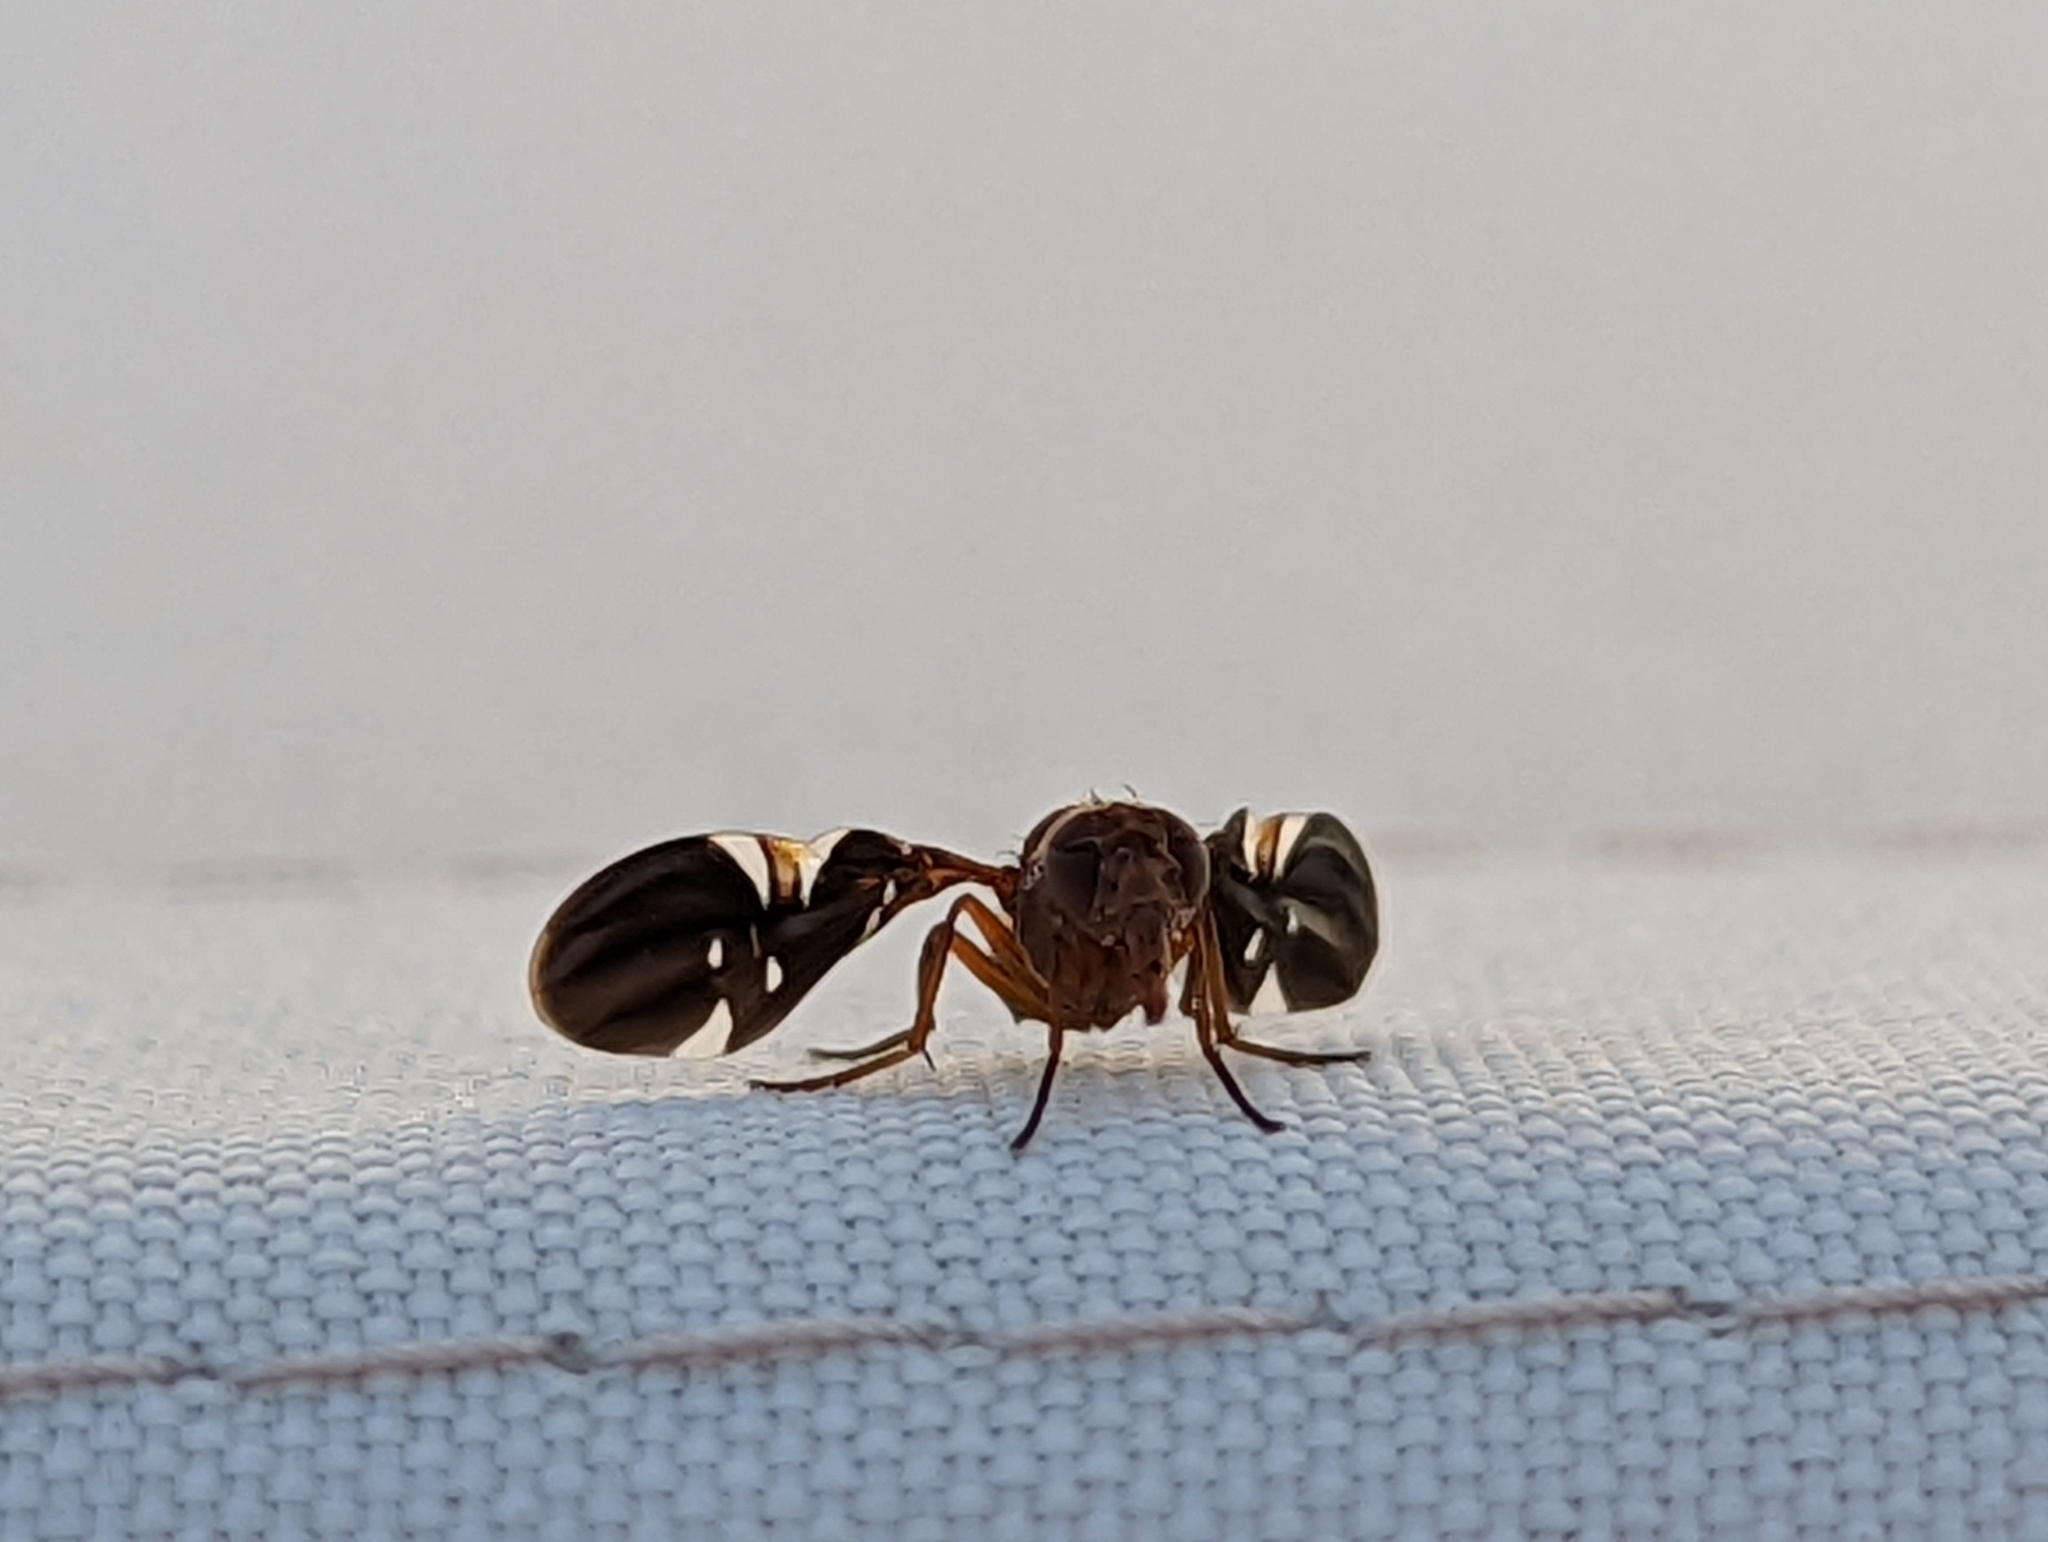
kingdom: Animalia
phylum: Arthropoda
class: Insecta
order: Diptera
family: Ulidiidae
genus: Delphinia
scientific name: Delphinia picta
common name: Common picture-winged fly
